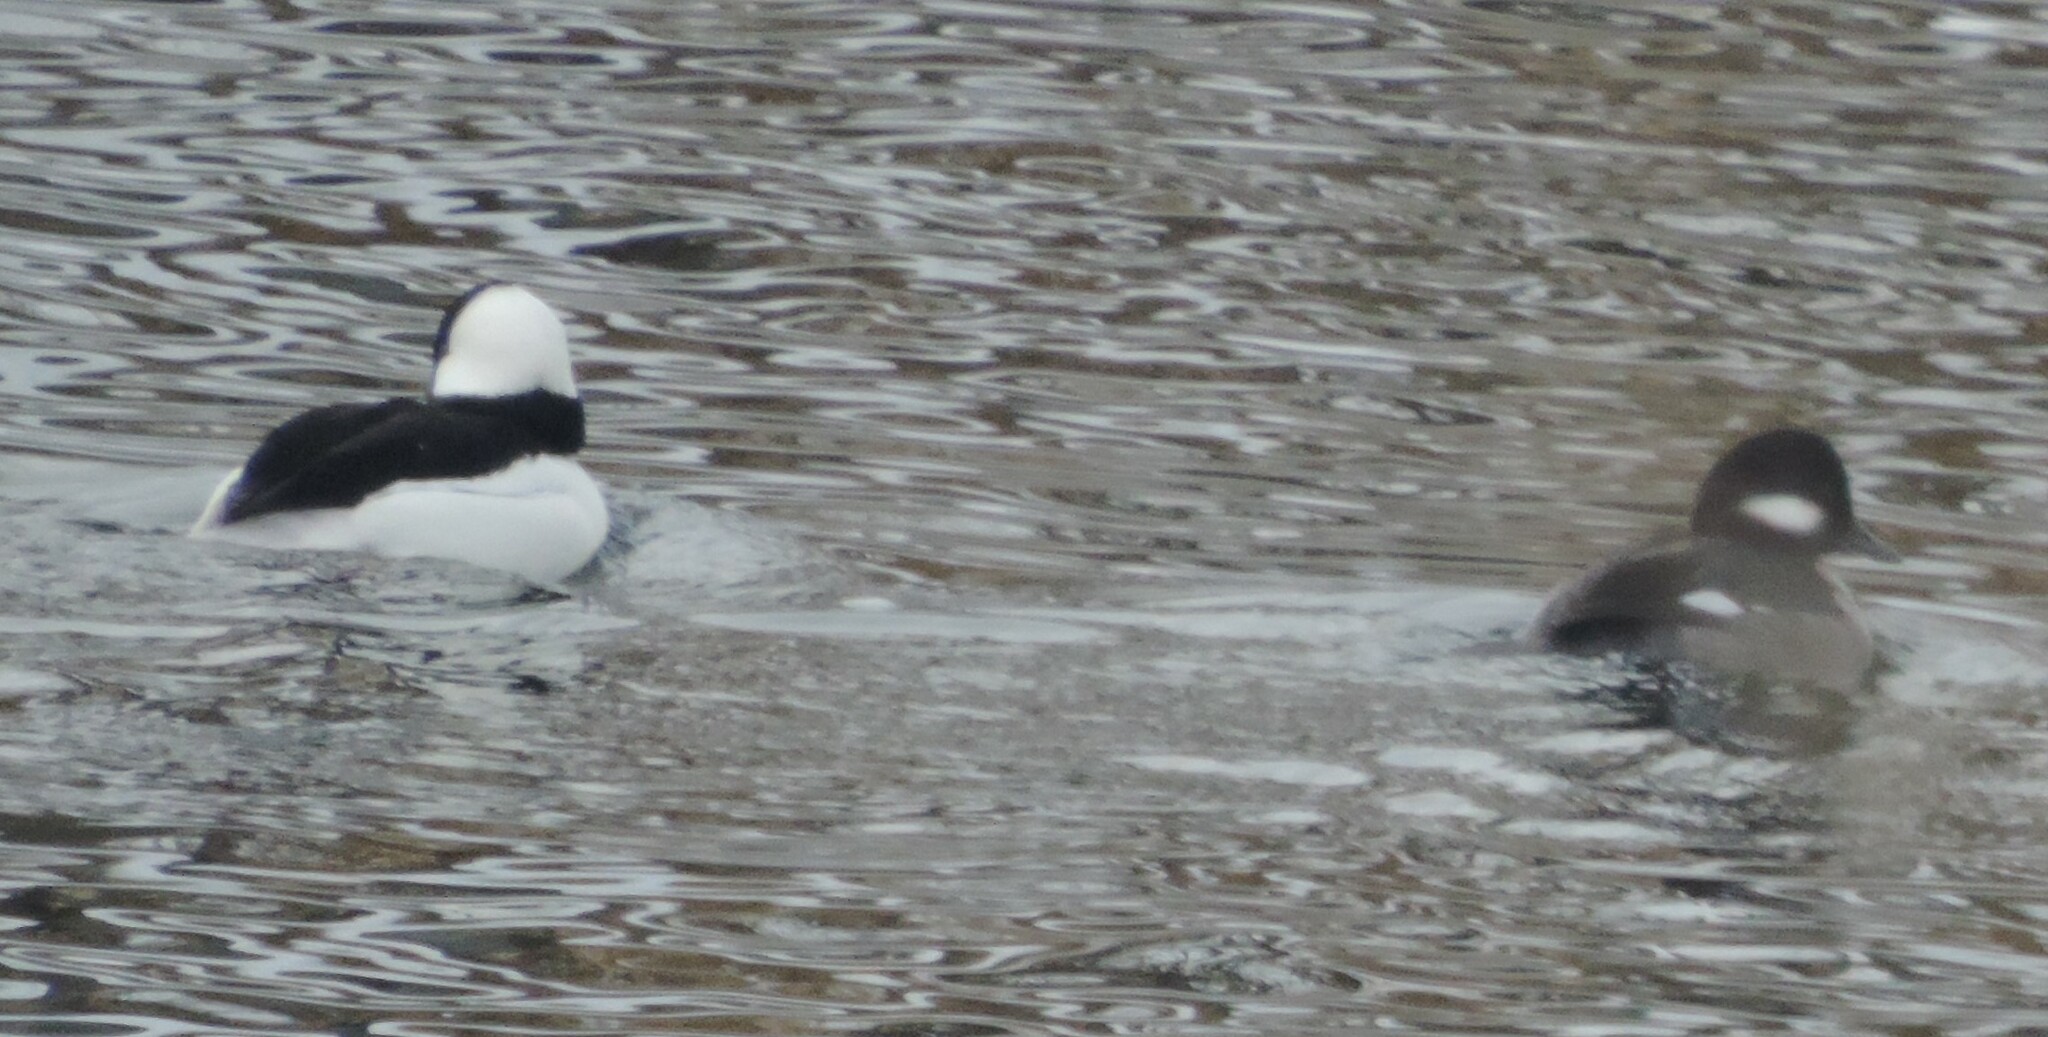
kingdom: Animalia
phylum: Chordata
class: Aves
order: Anseriformes
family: Anatidae
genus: Bucephala
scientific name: Bucephala albeola
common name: Bufflehead
